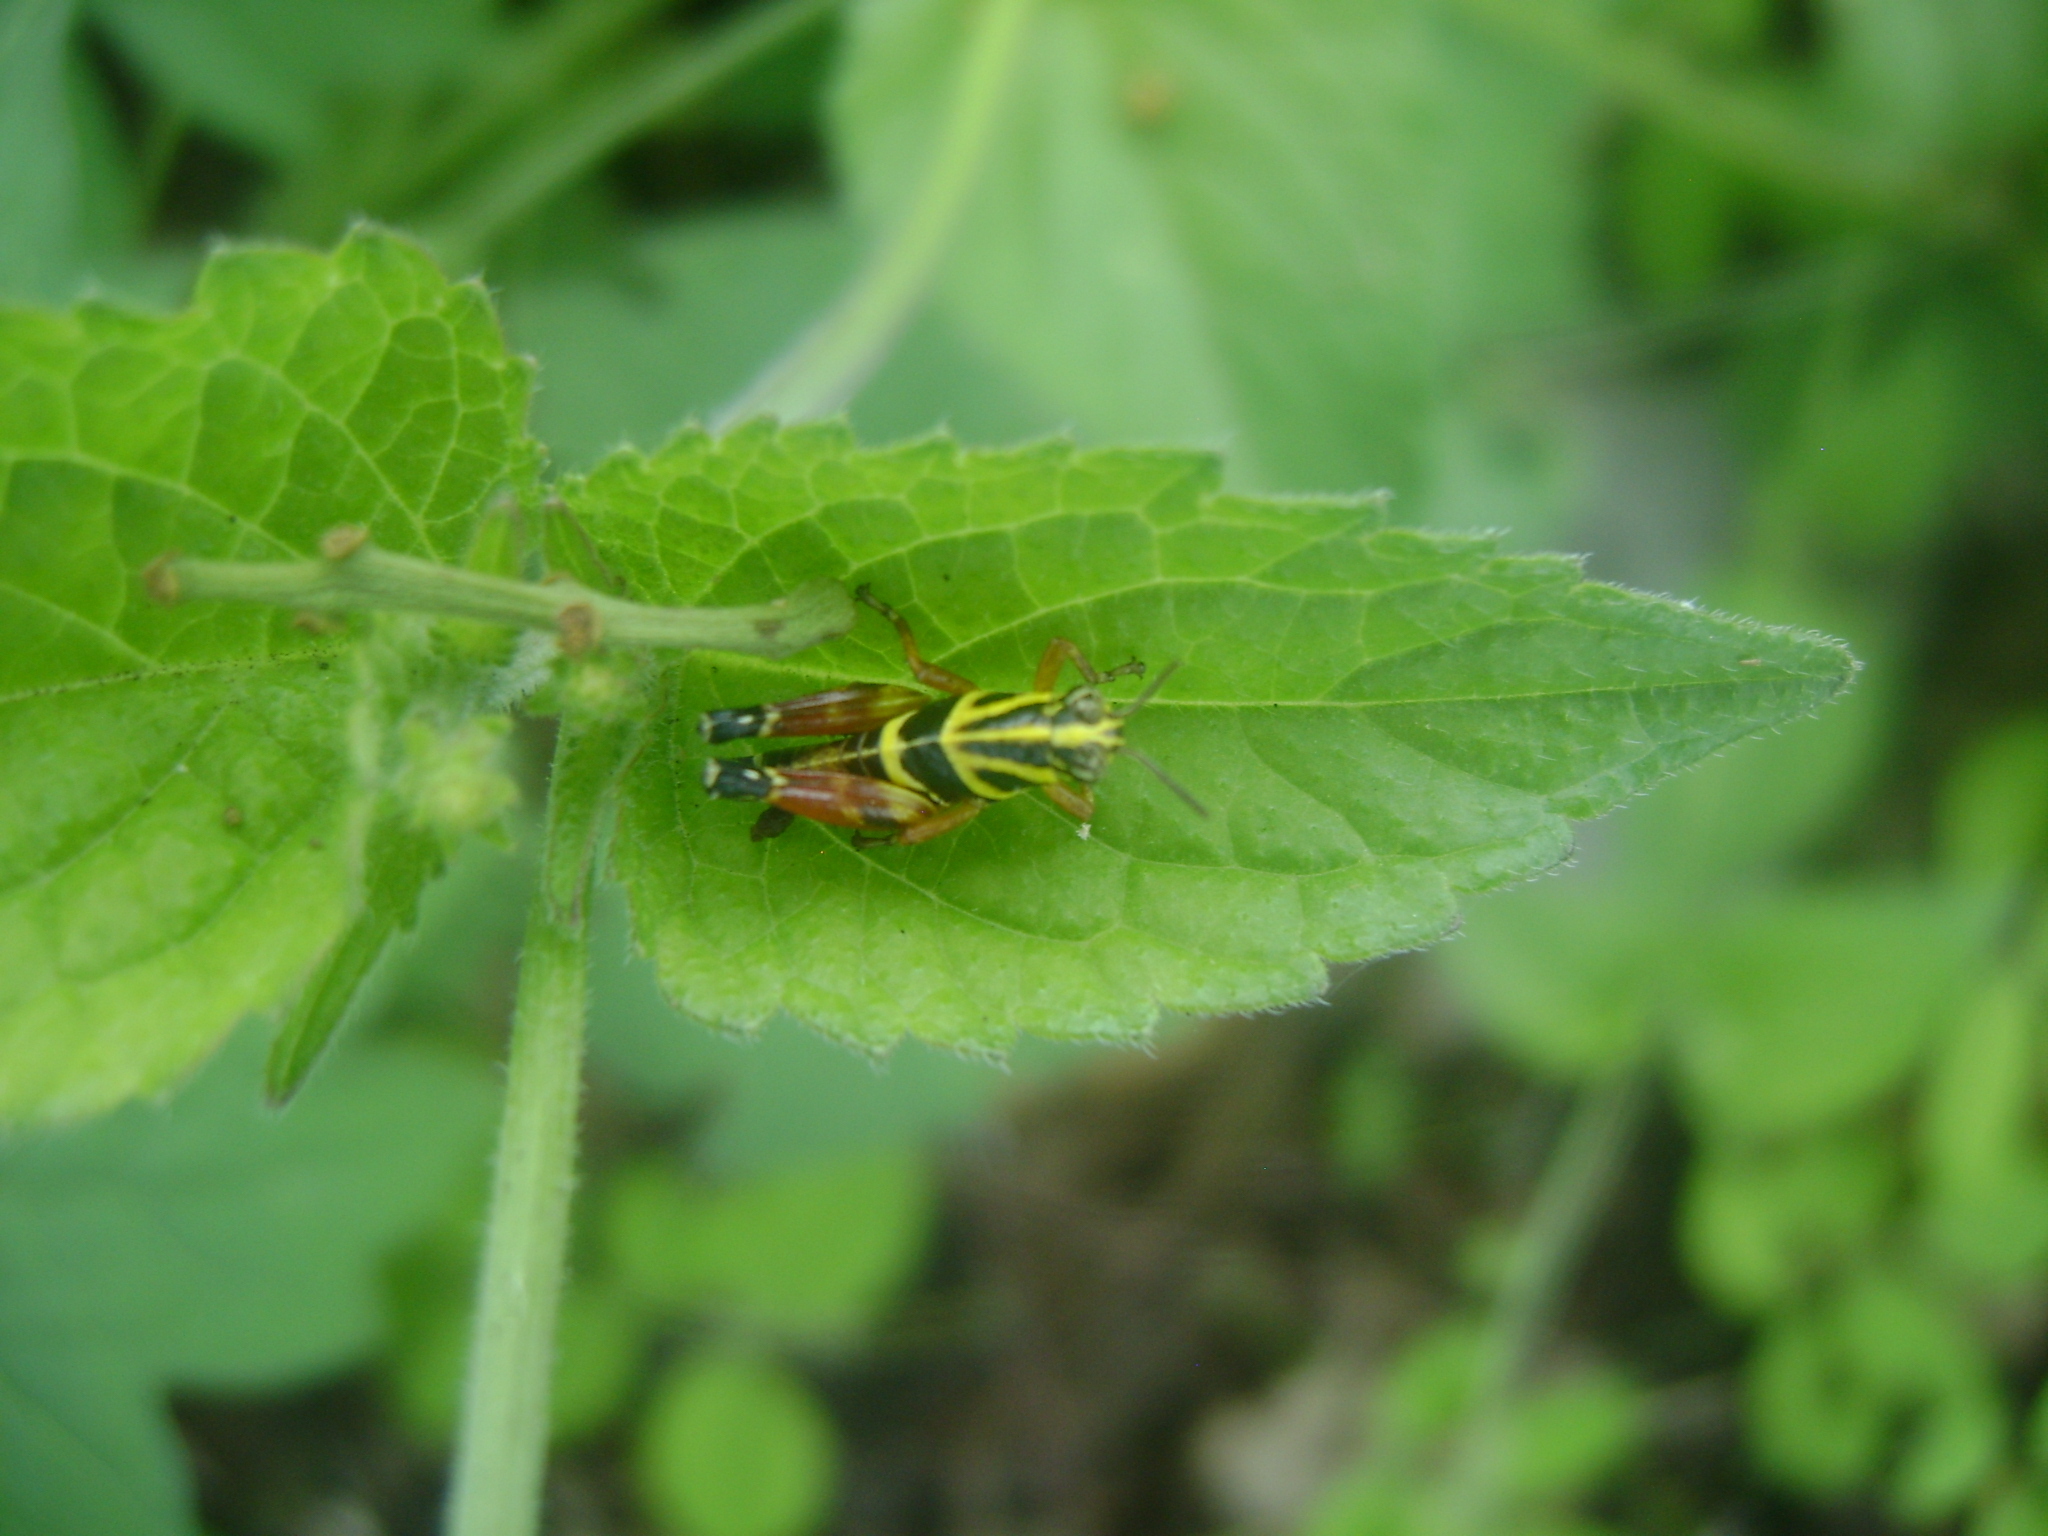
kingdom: Animalia
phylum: Arthropoda
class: Insecta
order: Orthoptera
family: Acrididae
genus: Aidemona
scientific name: Aidemona azteca
